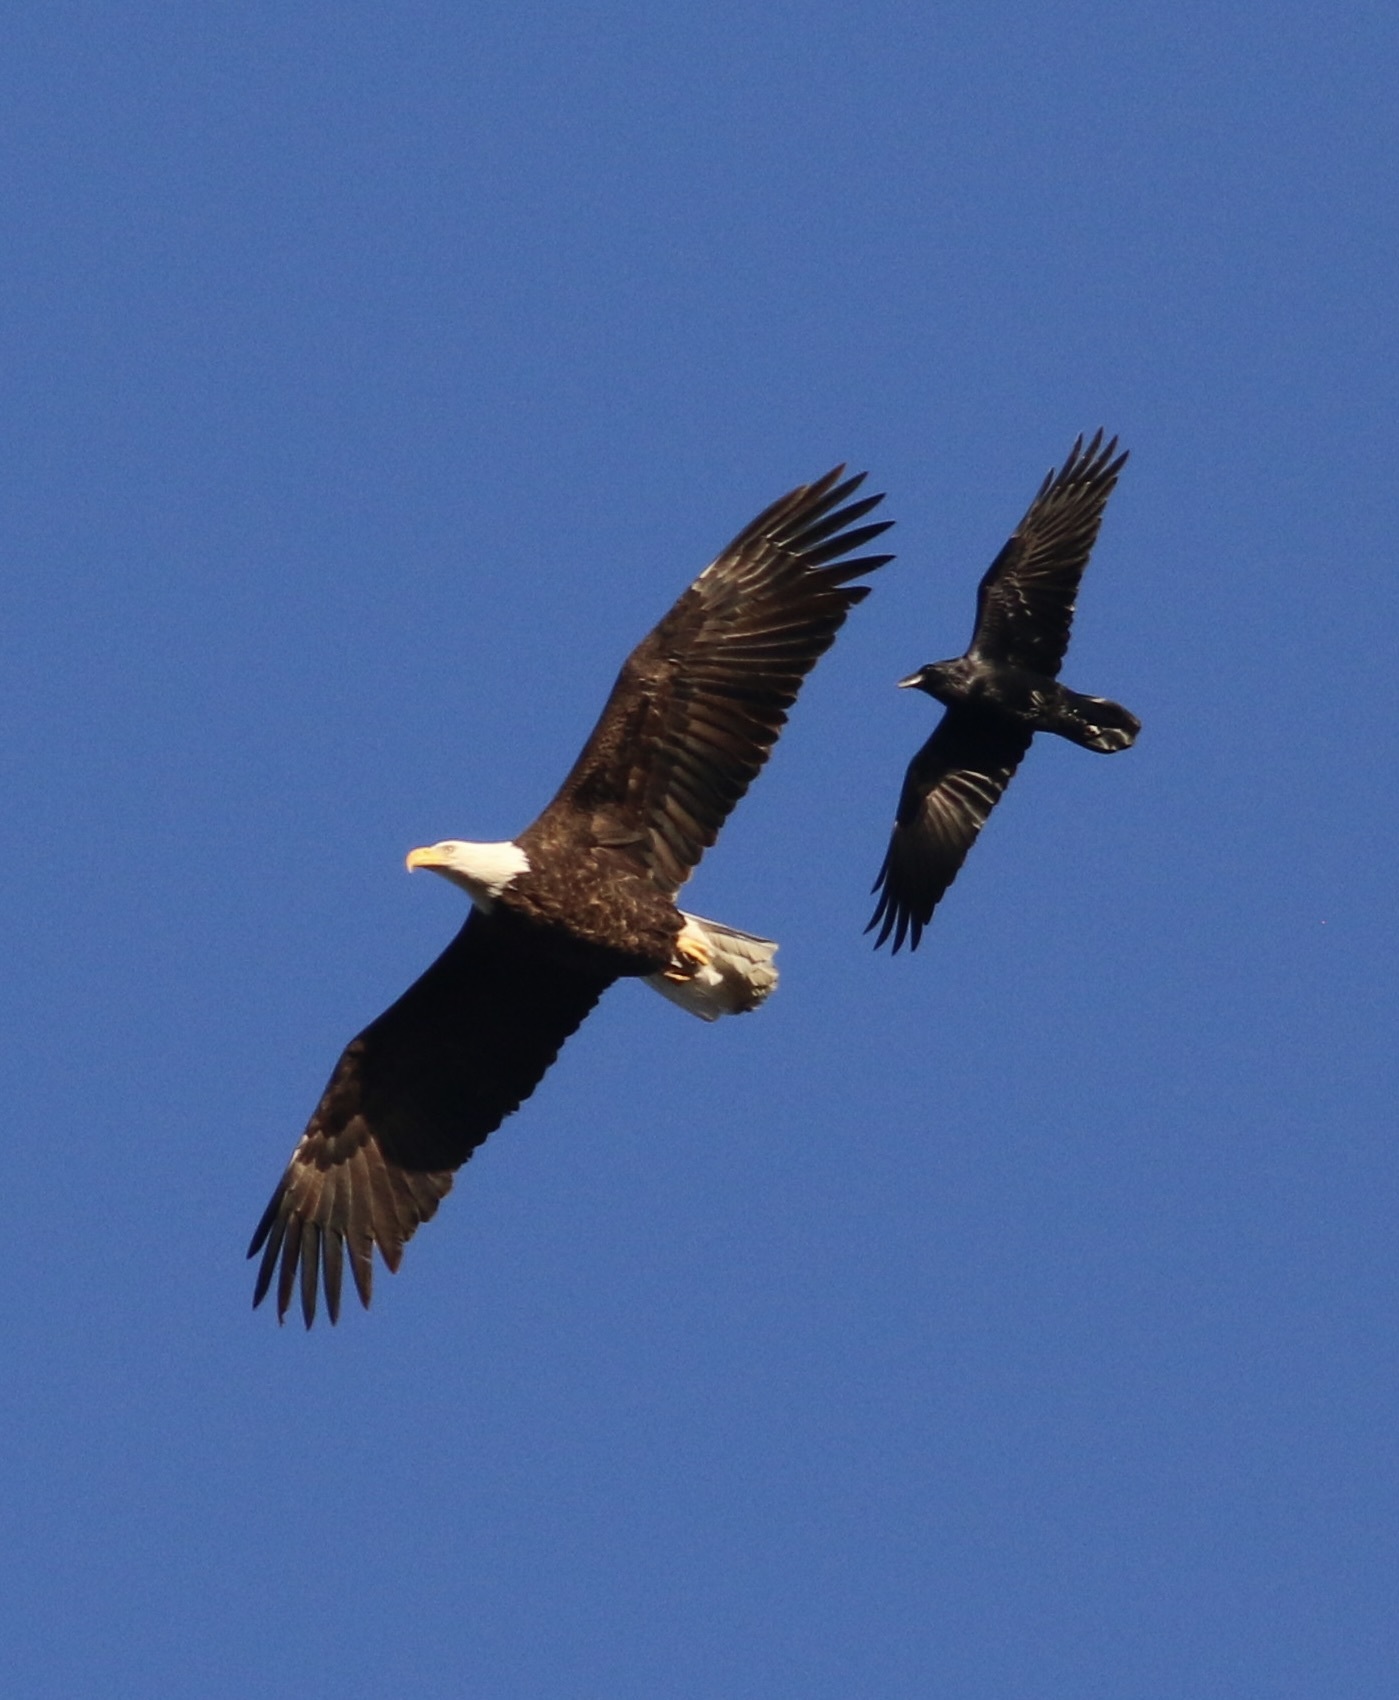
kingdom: Animalia
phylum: Chordata
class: Aves
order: Passeriformes
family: Corvidae
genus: Corvus
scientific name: Corvus corax
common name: Common raven
